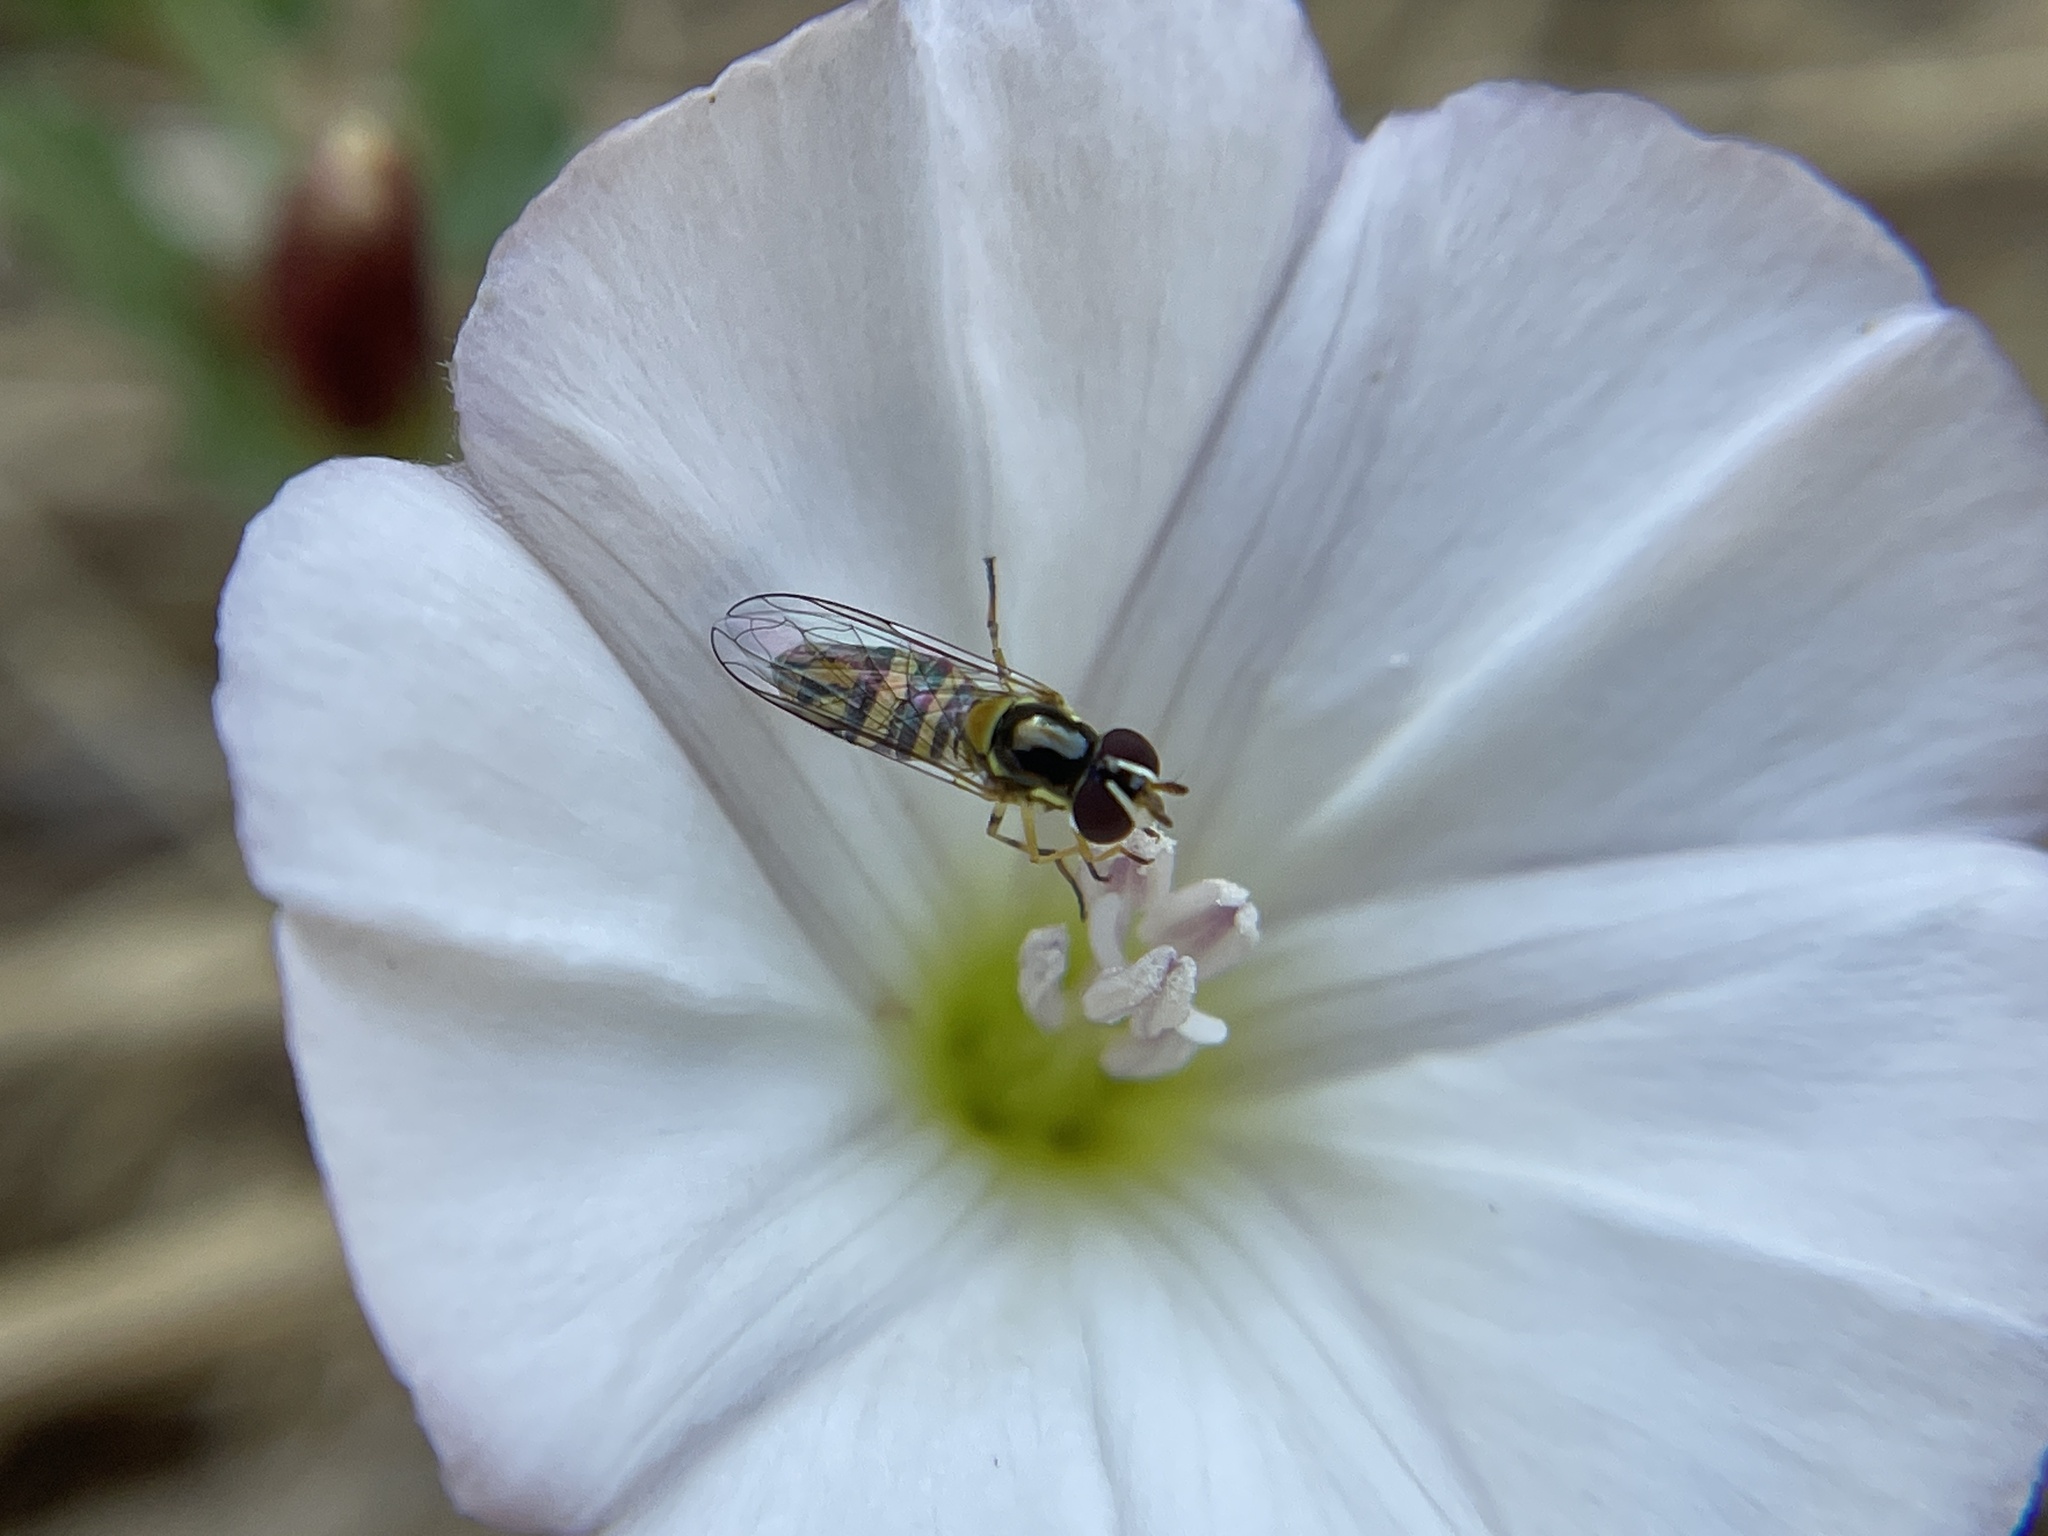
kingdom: Animalia
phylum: Arthropoda
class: Insecta
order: Diptera
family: Syrphidae
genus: Allograpta
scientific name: Allograpta obliqua
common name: Common oblique syrphid
